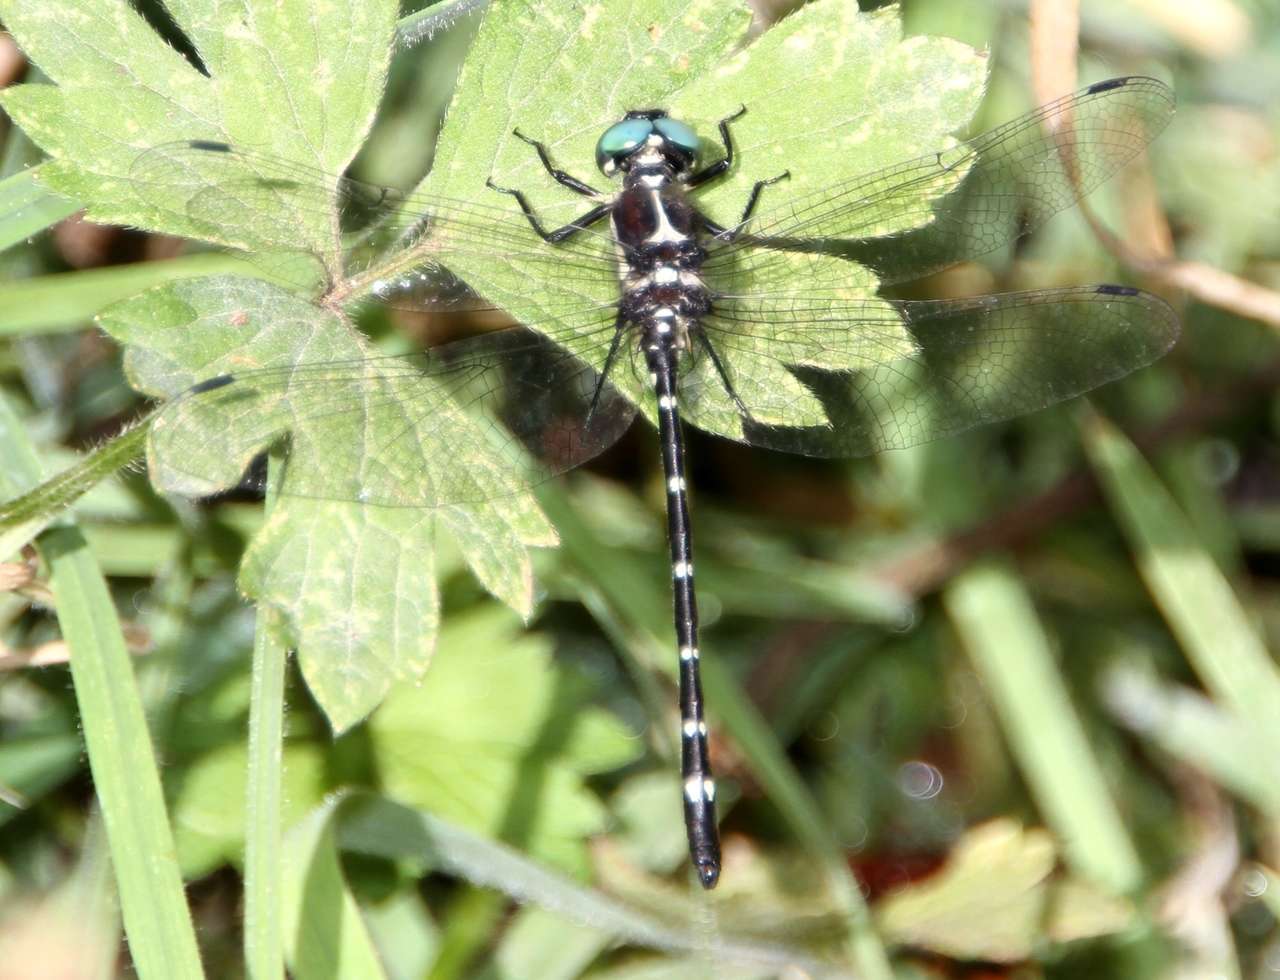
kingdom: Animalia
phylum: Arthropoda
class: Insecta
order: Odonata
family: Synthemistidae
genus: Eusynthemis
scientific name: Eusynthemis guttata
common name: Southern tigertail
